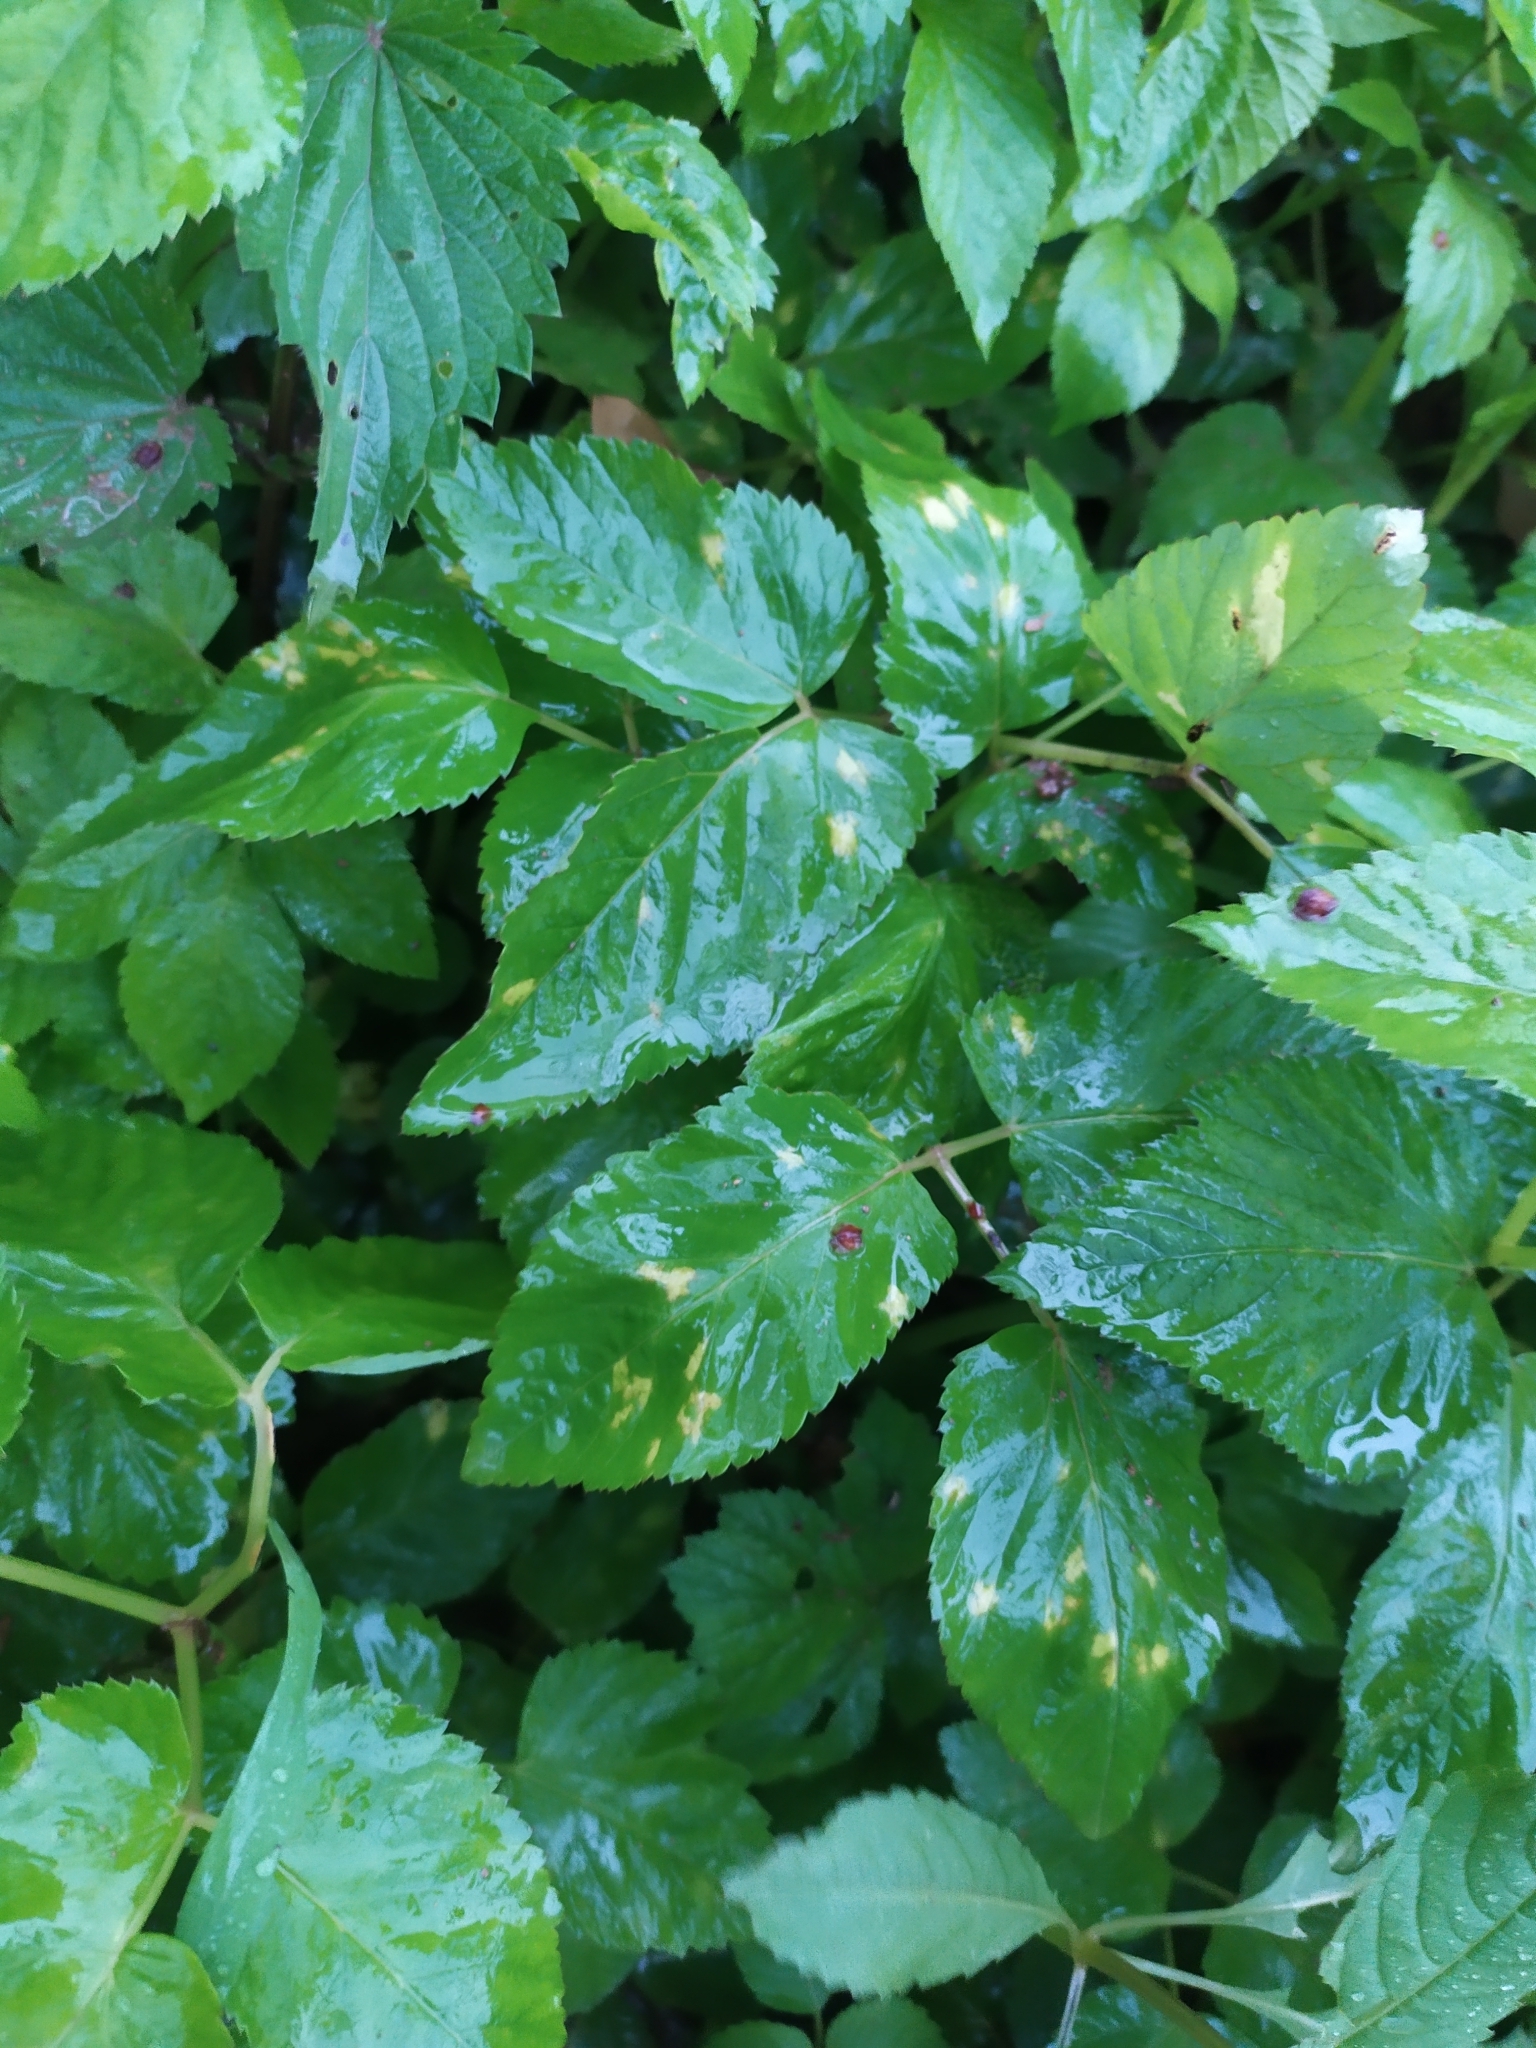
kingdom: Chromista
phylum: Oomycota
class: Peronosporea
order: Peronosporales
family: Peronosporaceae
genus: Peronospora
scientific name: Peronospora crustosa
